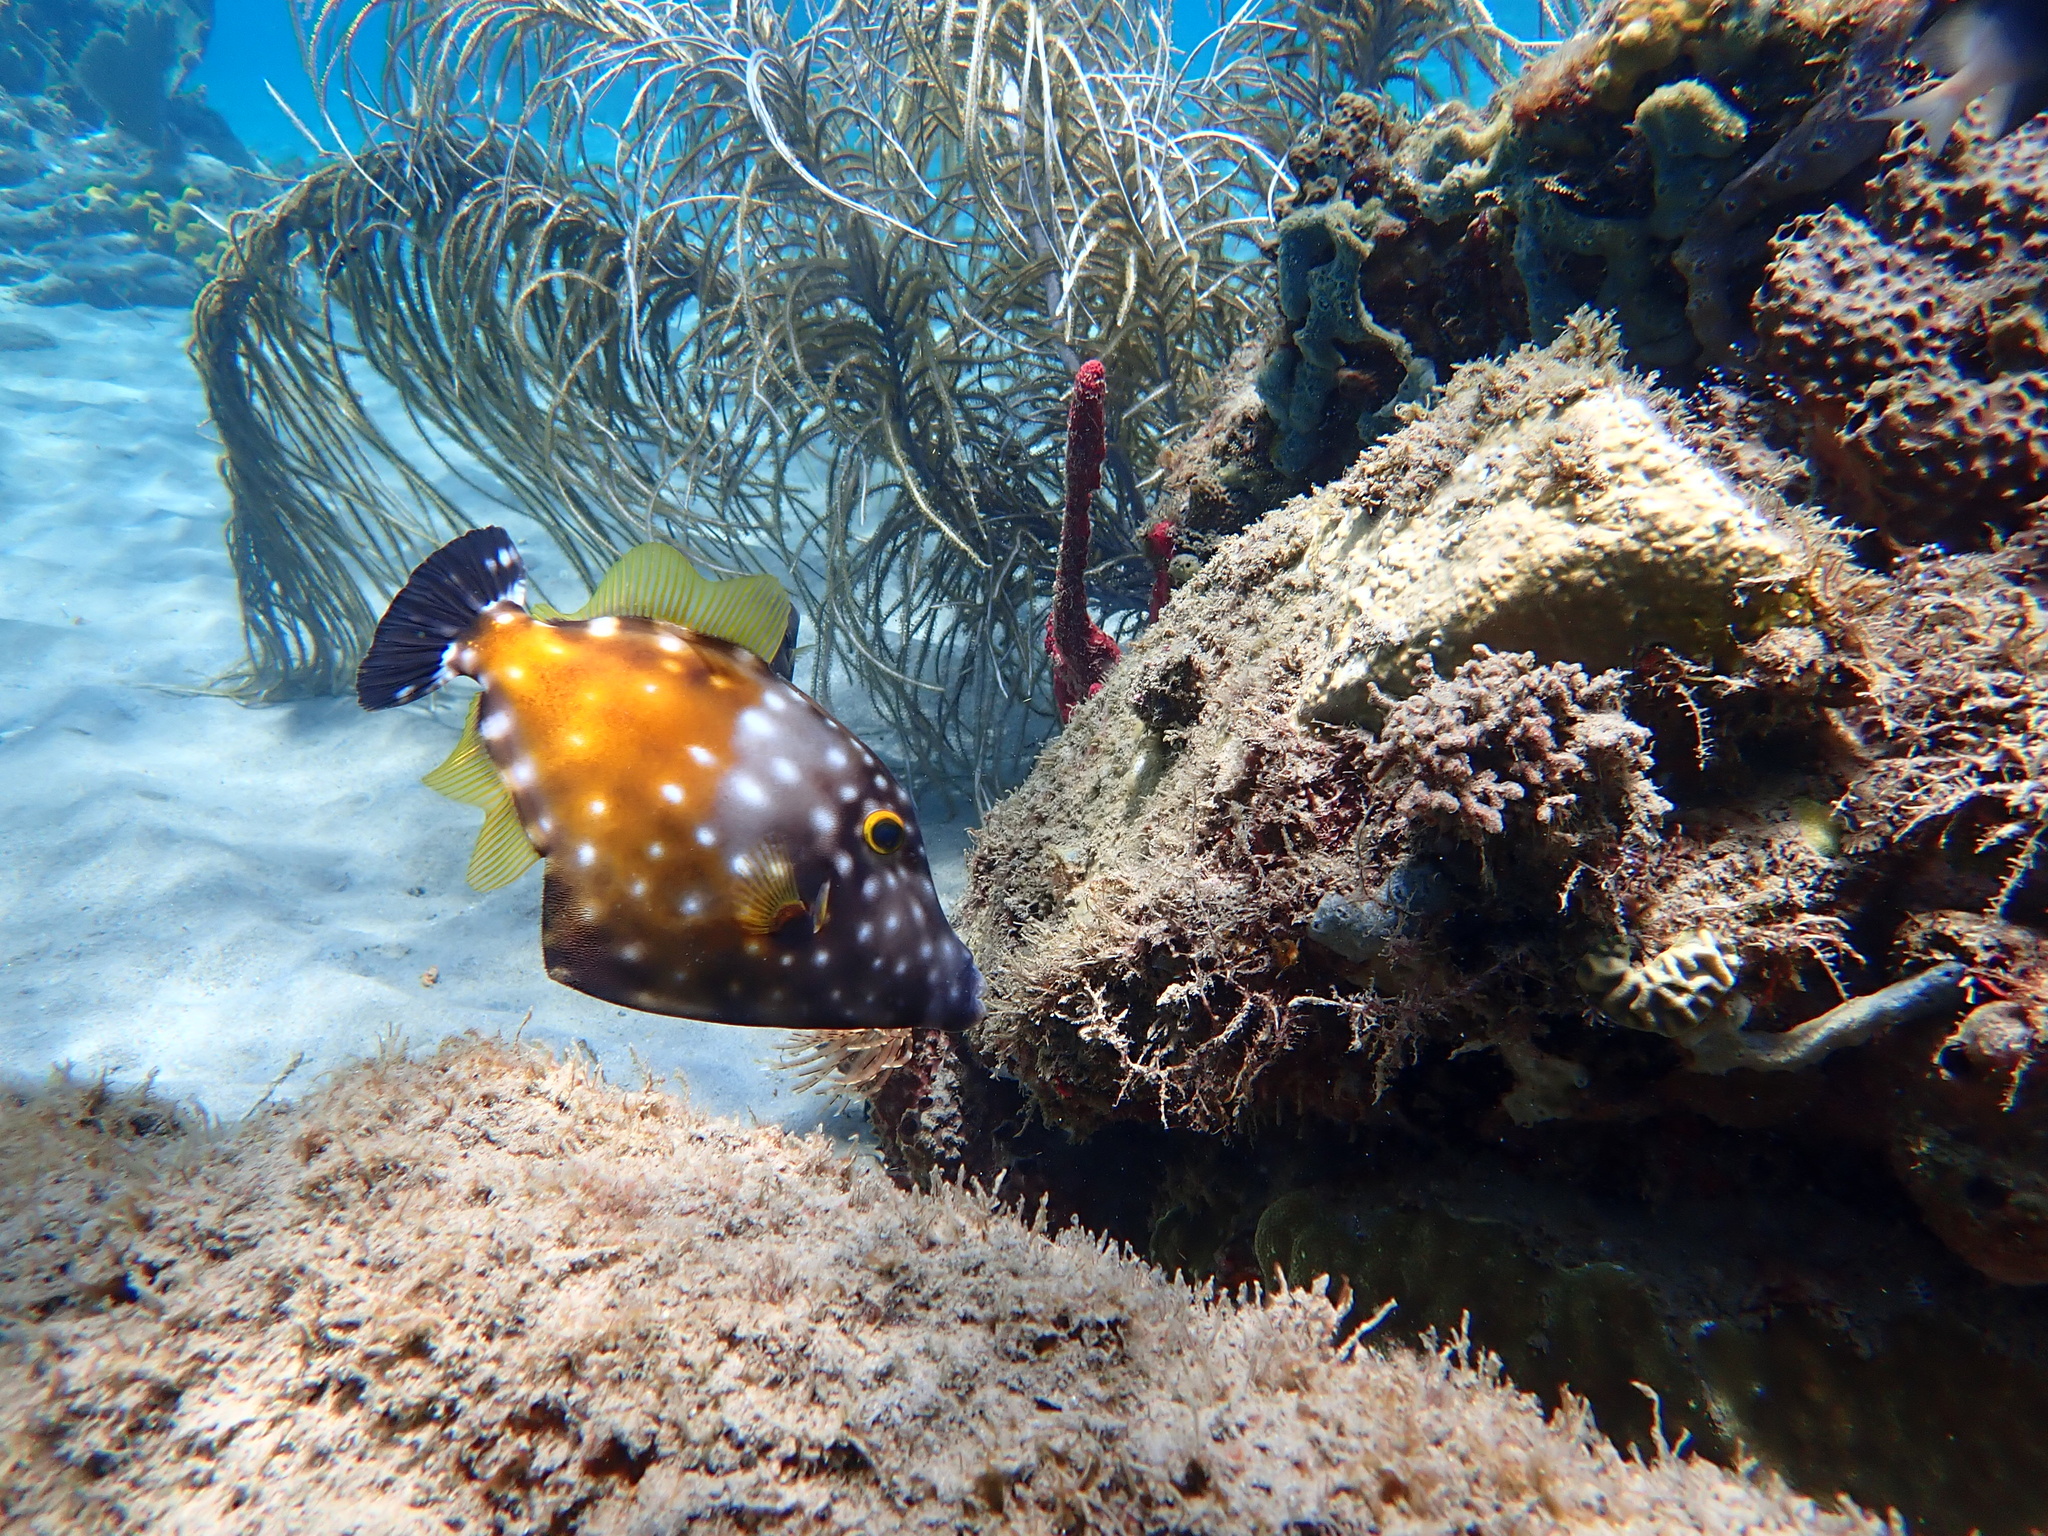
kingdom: Animalia
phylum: Chordata
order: Tetraodontiformes
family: Monacanthidae
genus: Cantherhines
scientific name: Cantherhines macrocerus
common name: Whitespotted filefish
